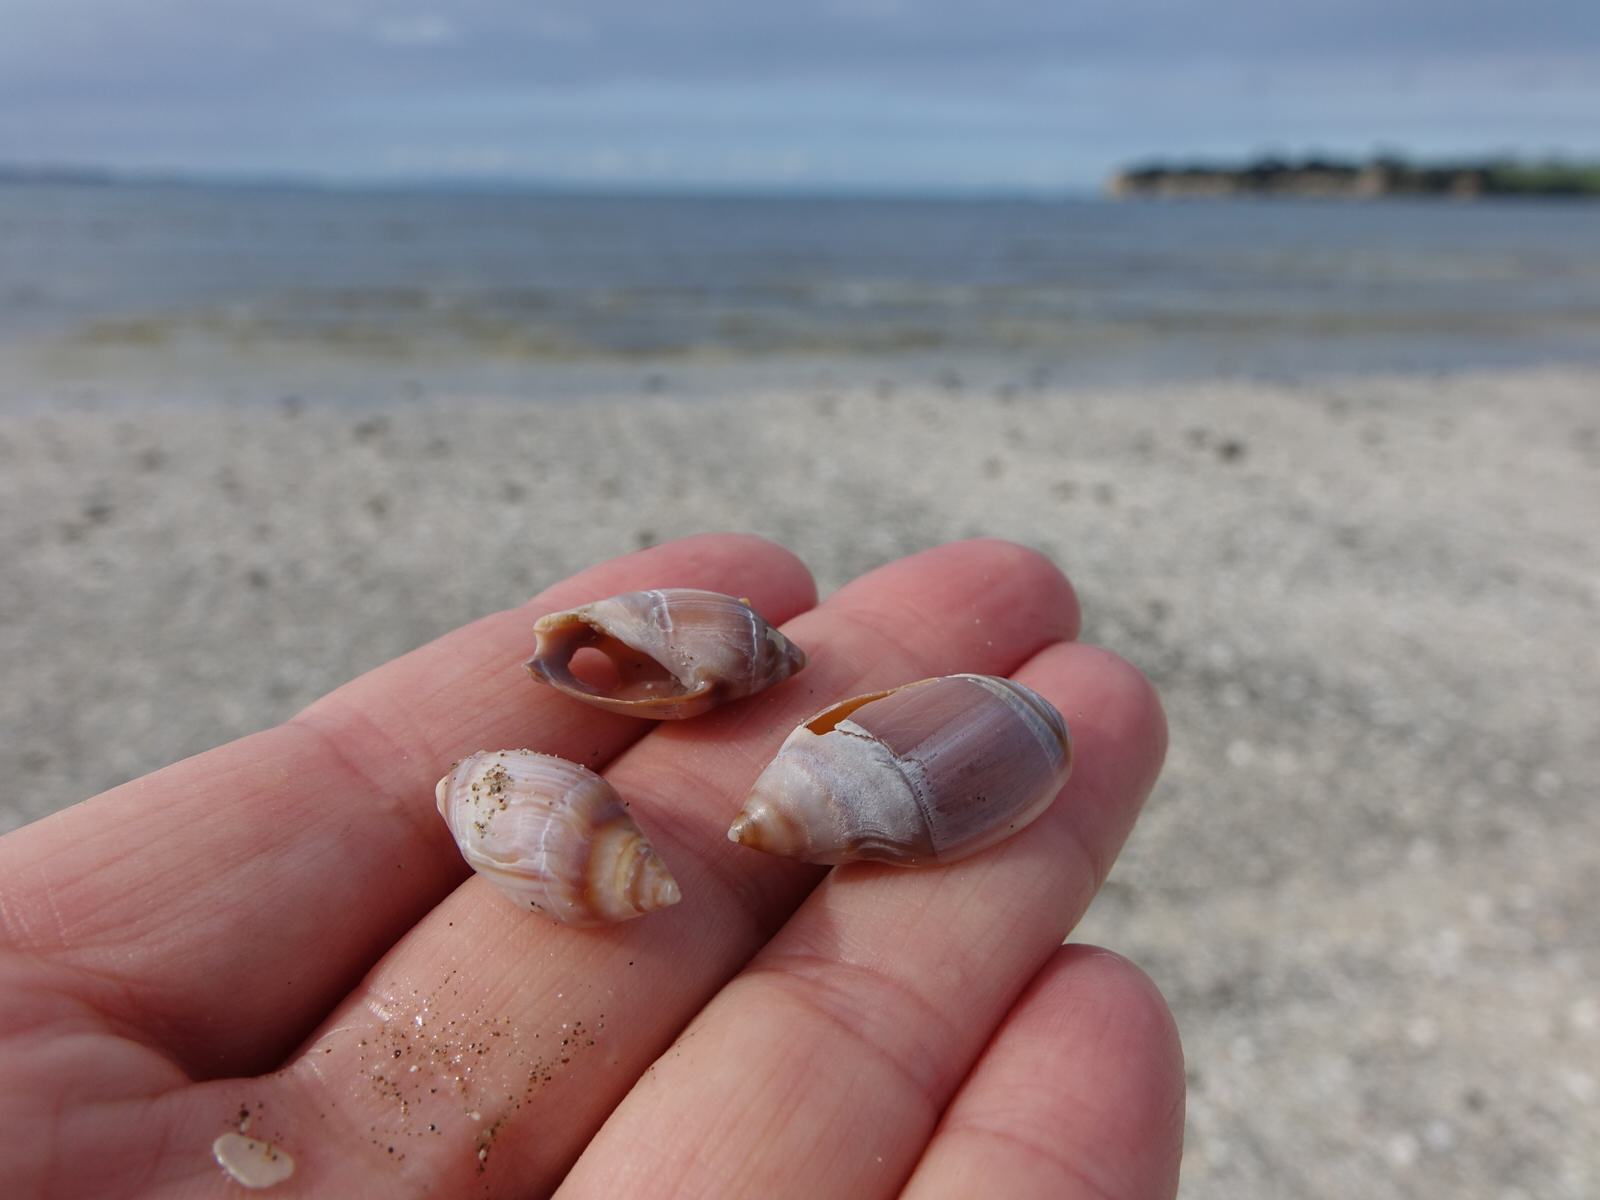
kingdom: Animalia
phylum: Mollusca
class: Gastropoda
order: Neogastropoda
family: Ancillariidae
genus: Amalda
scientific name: Amalda australis
